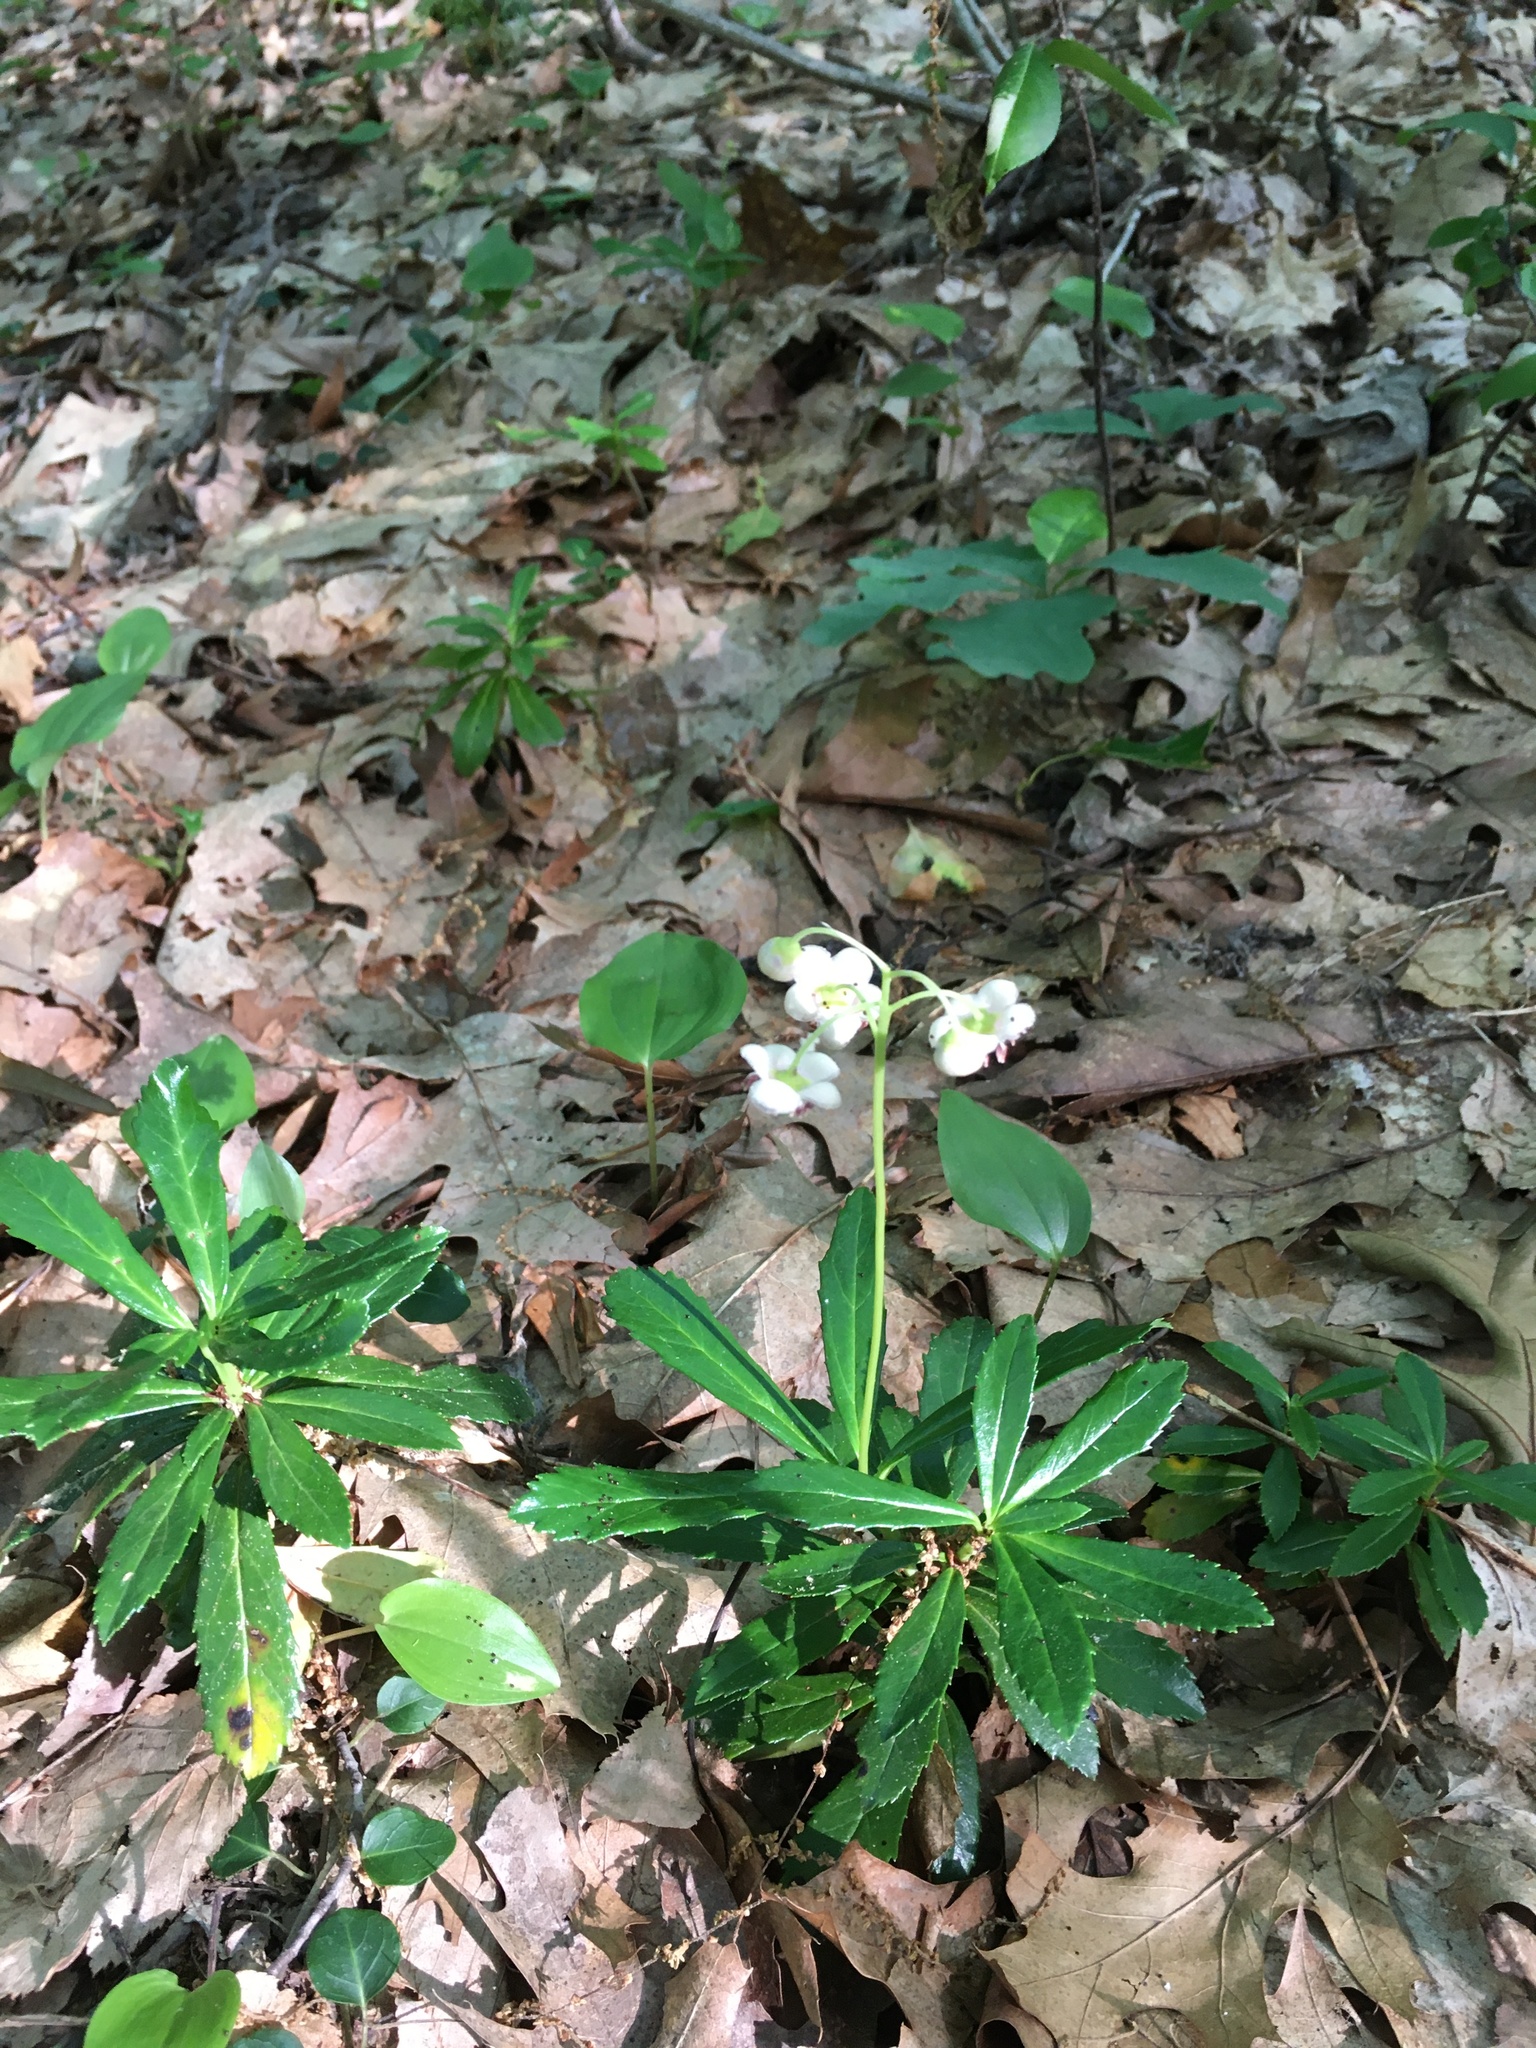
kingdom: Plantae
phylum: Tracheophyta
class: Magnoliopsida
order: Ericales
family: Ericaceae
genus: Chimaphila
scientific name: Chimaphila umbellata
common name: Pipsissewa
